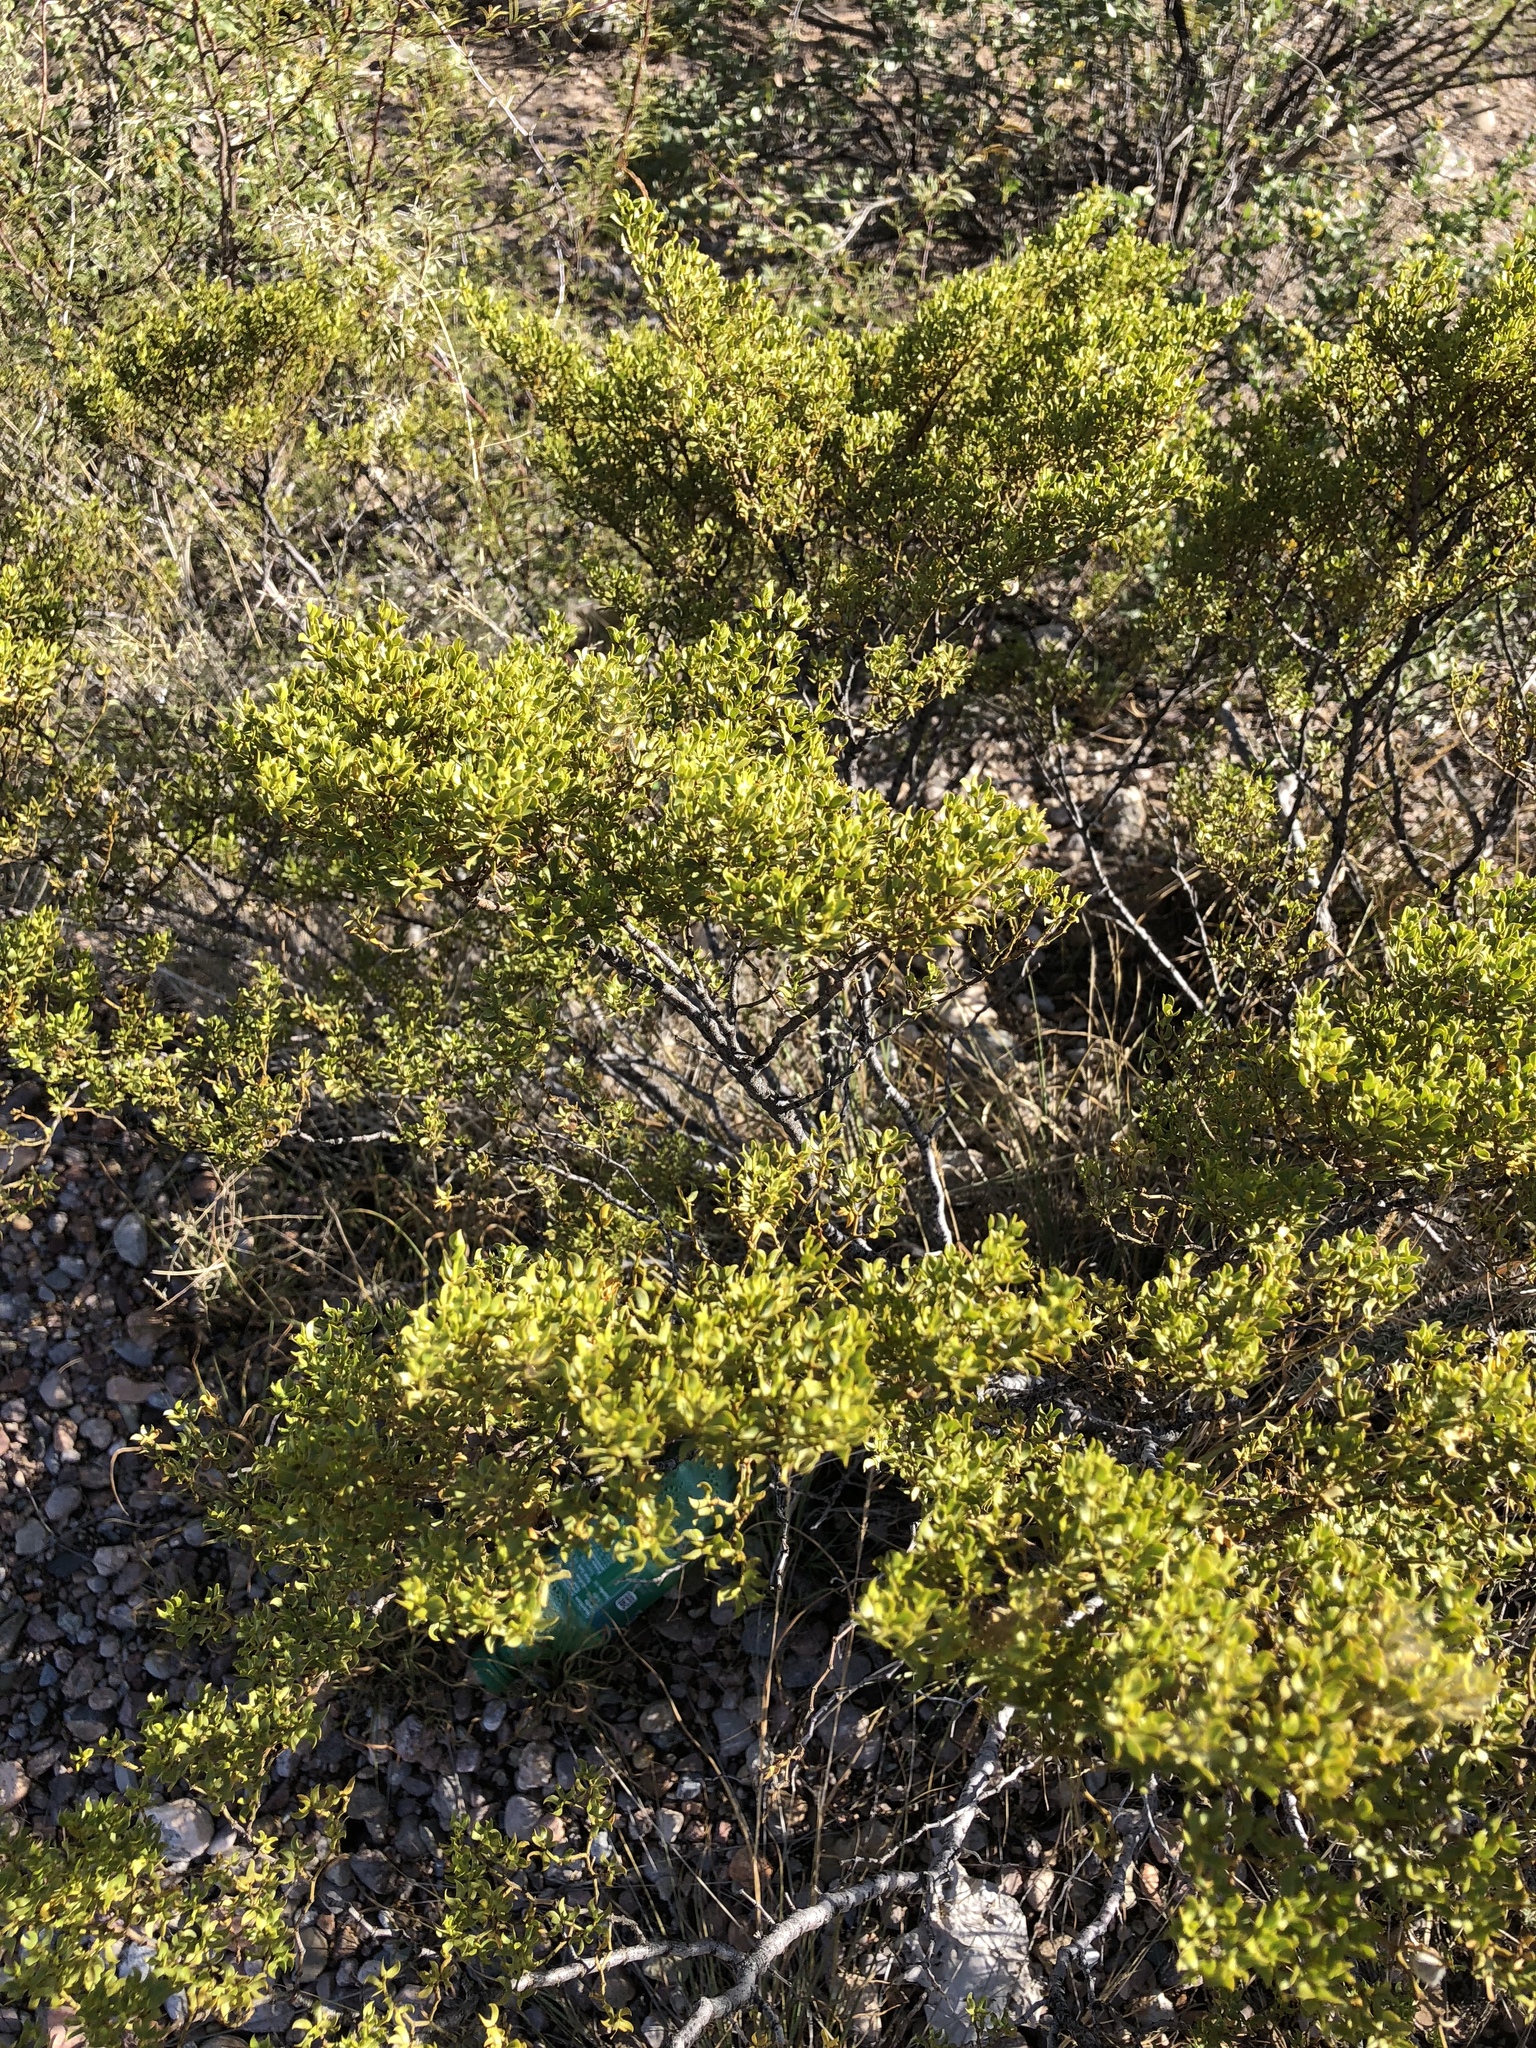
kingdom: Plantae
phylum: Tracheophyta
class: Magnoliopsida
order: Zygophyllales
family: Zygophyllaceae
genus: Larrea
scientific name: Larrea tridentata
